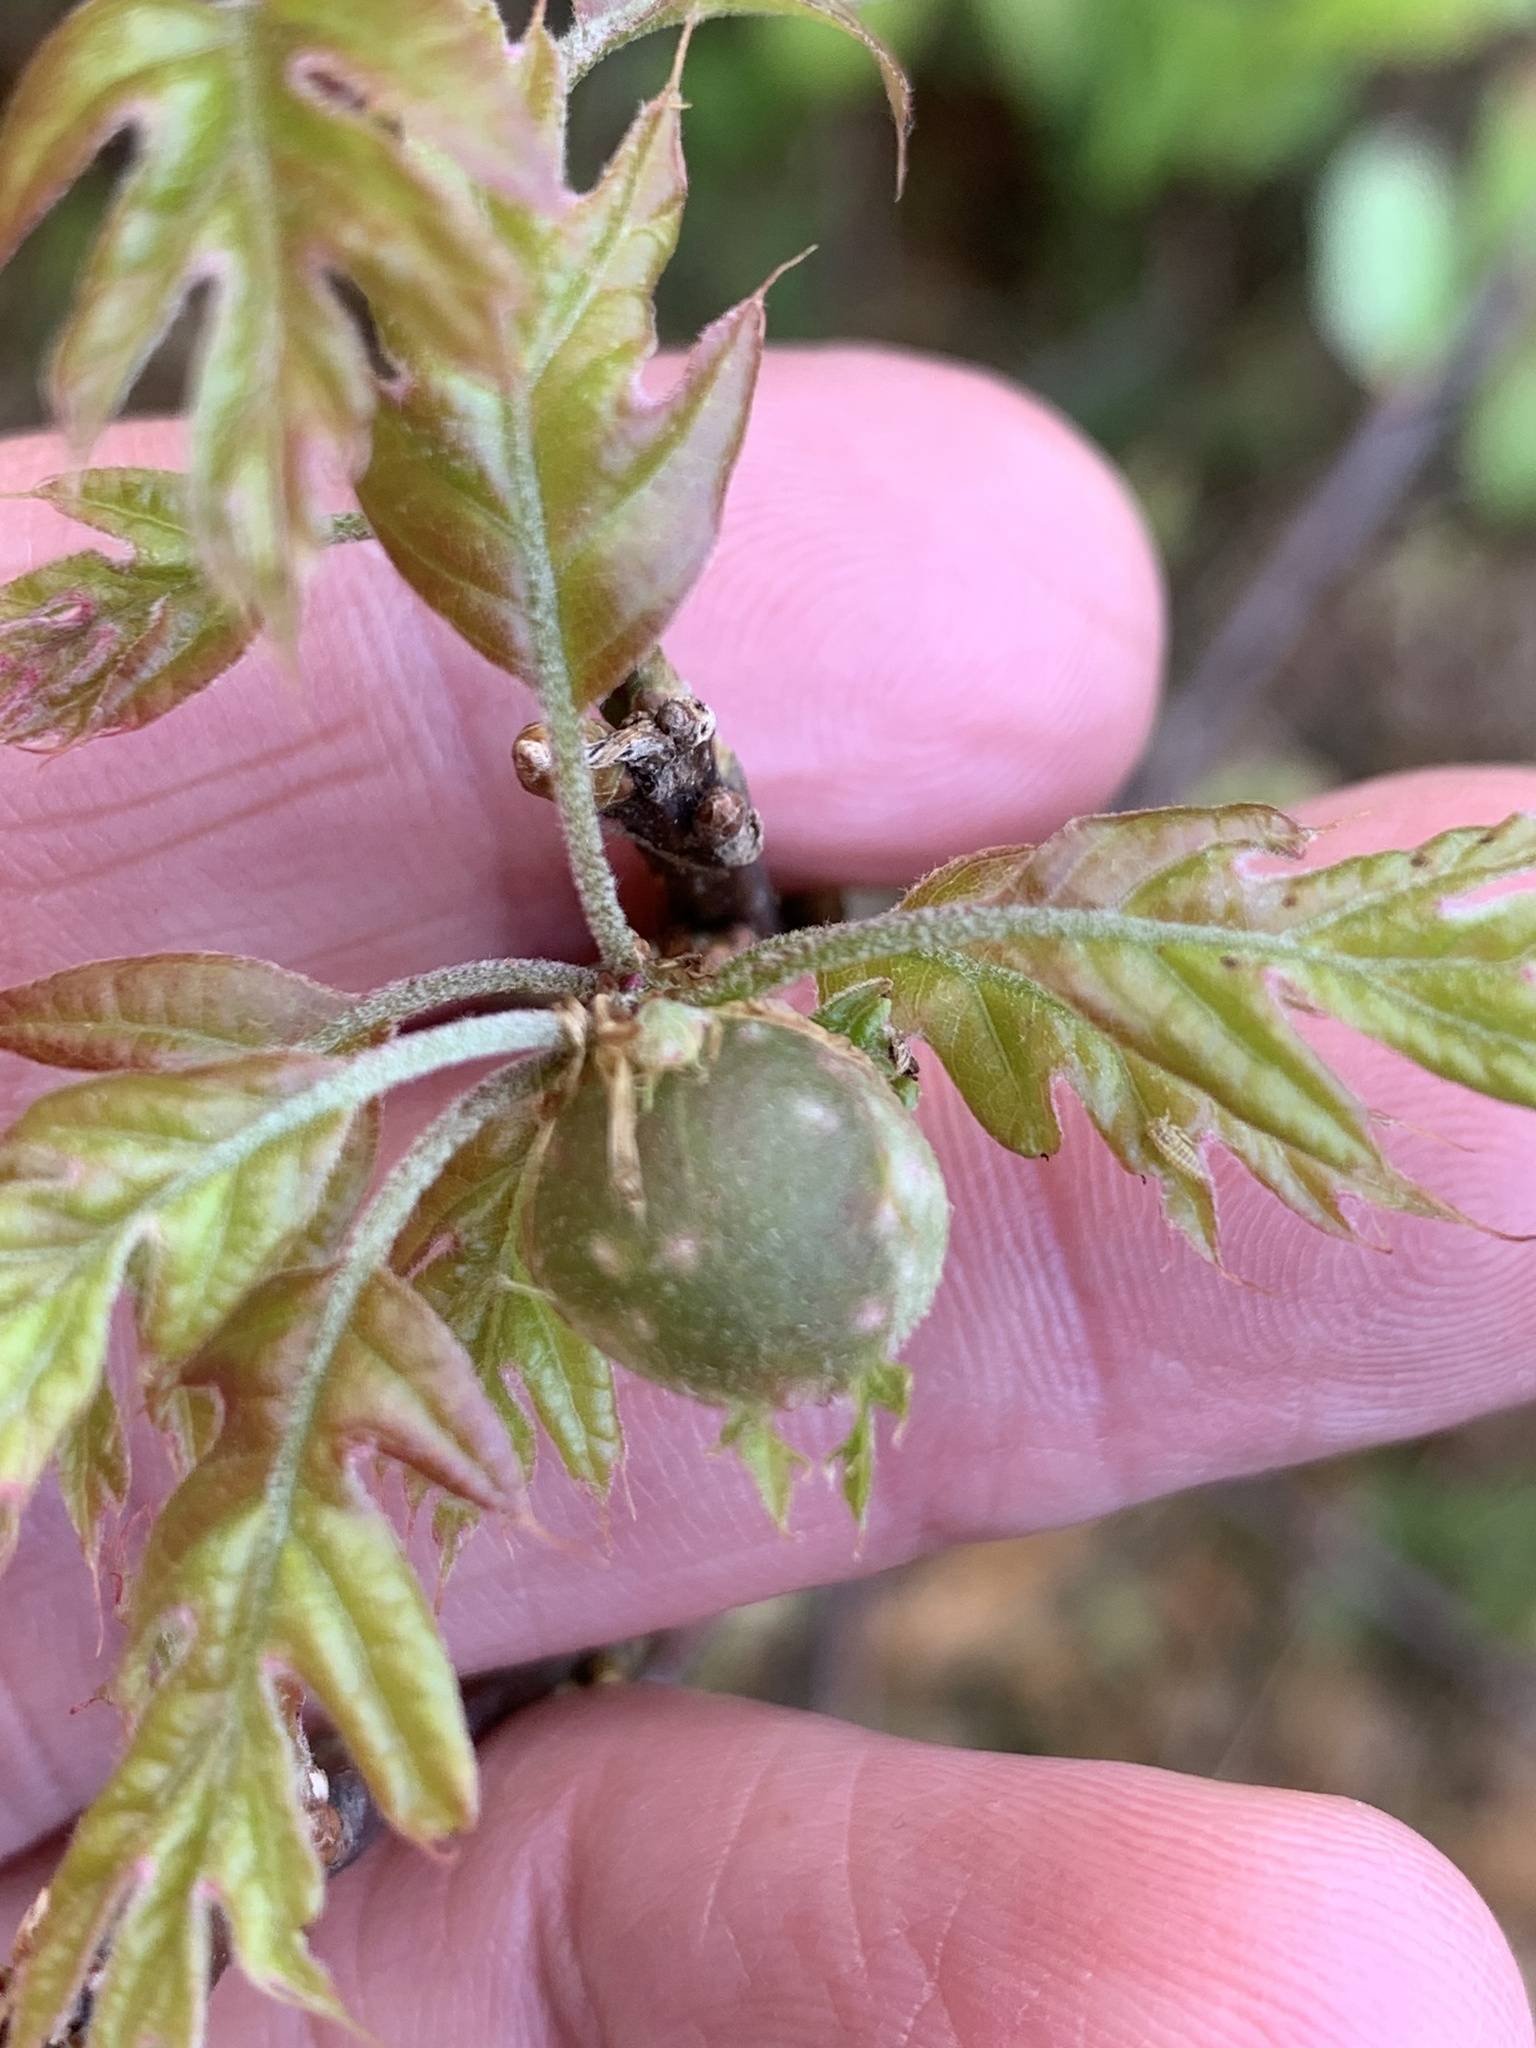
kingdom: Animalia
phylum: Arthropoda
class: Insecta
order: Hymenoptera
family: Cynipidae
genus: Dryocosmus
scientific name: Dryocosmus quercuspalustris
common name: Succulent oak gall wasp
